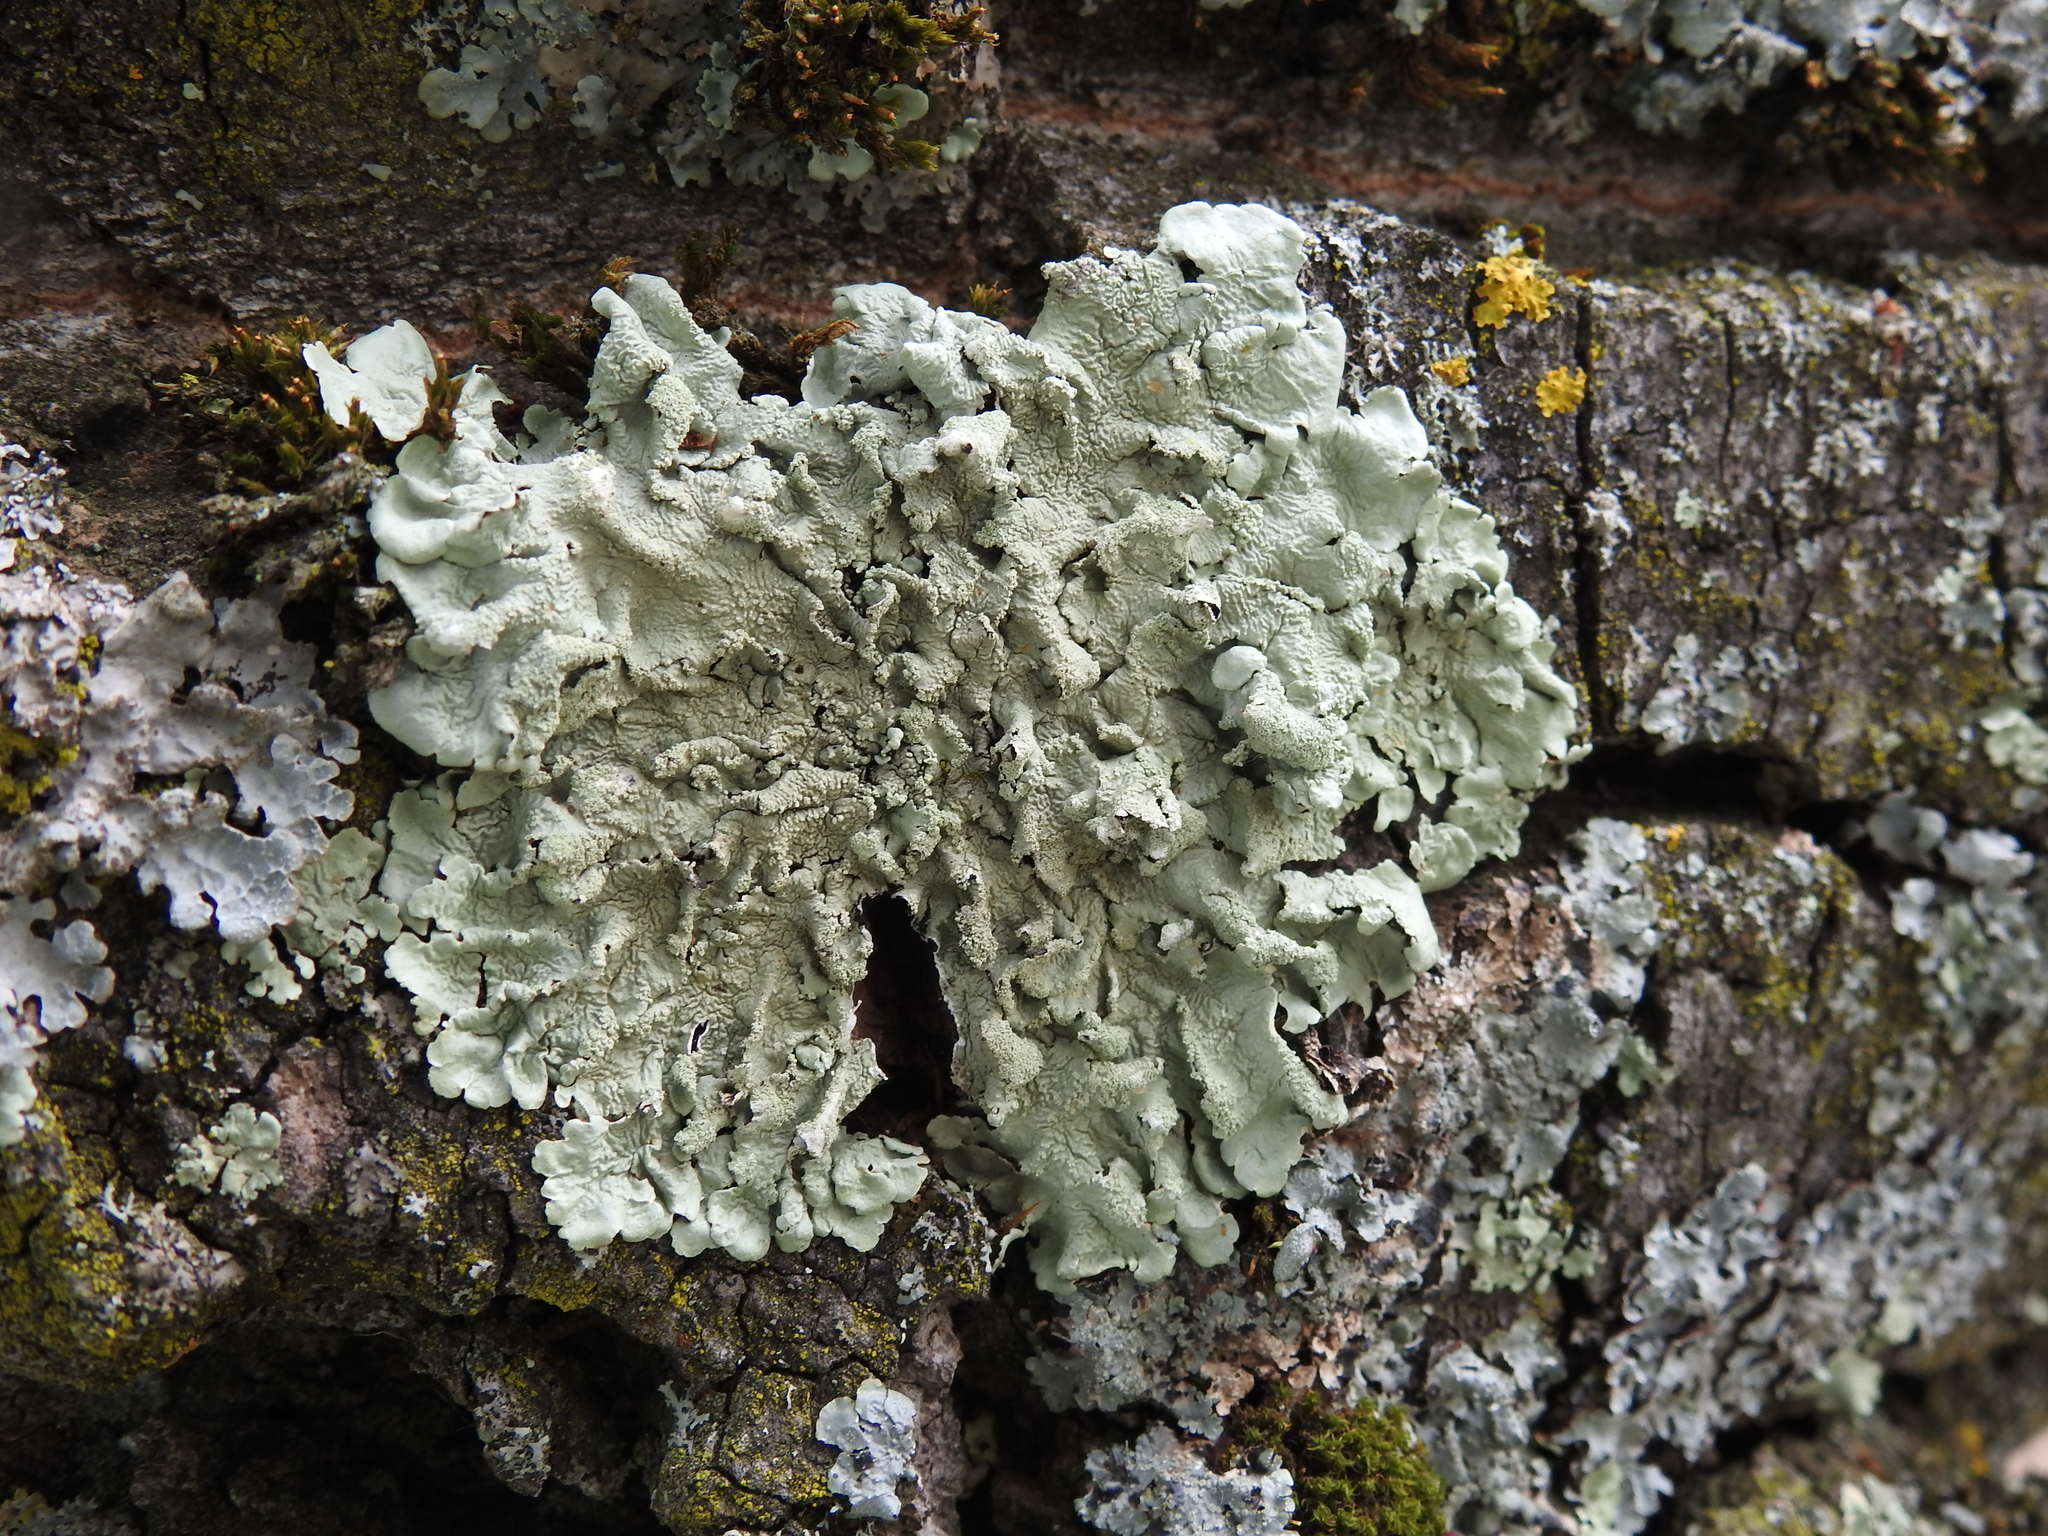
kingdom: Fungi
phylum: Ascomycota
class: Lecanoromycetes
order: Lecanorales
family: Parmeliaceae
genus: Flavoparmelia
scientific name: Flavoparmelia caperata
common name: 40-mile per hour lichen
